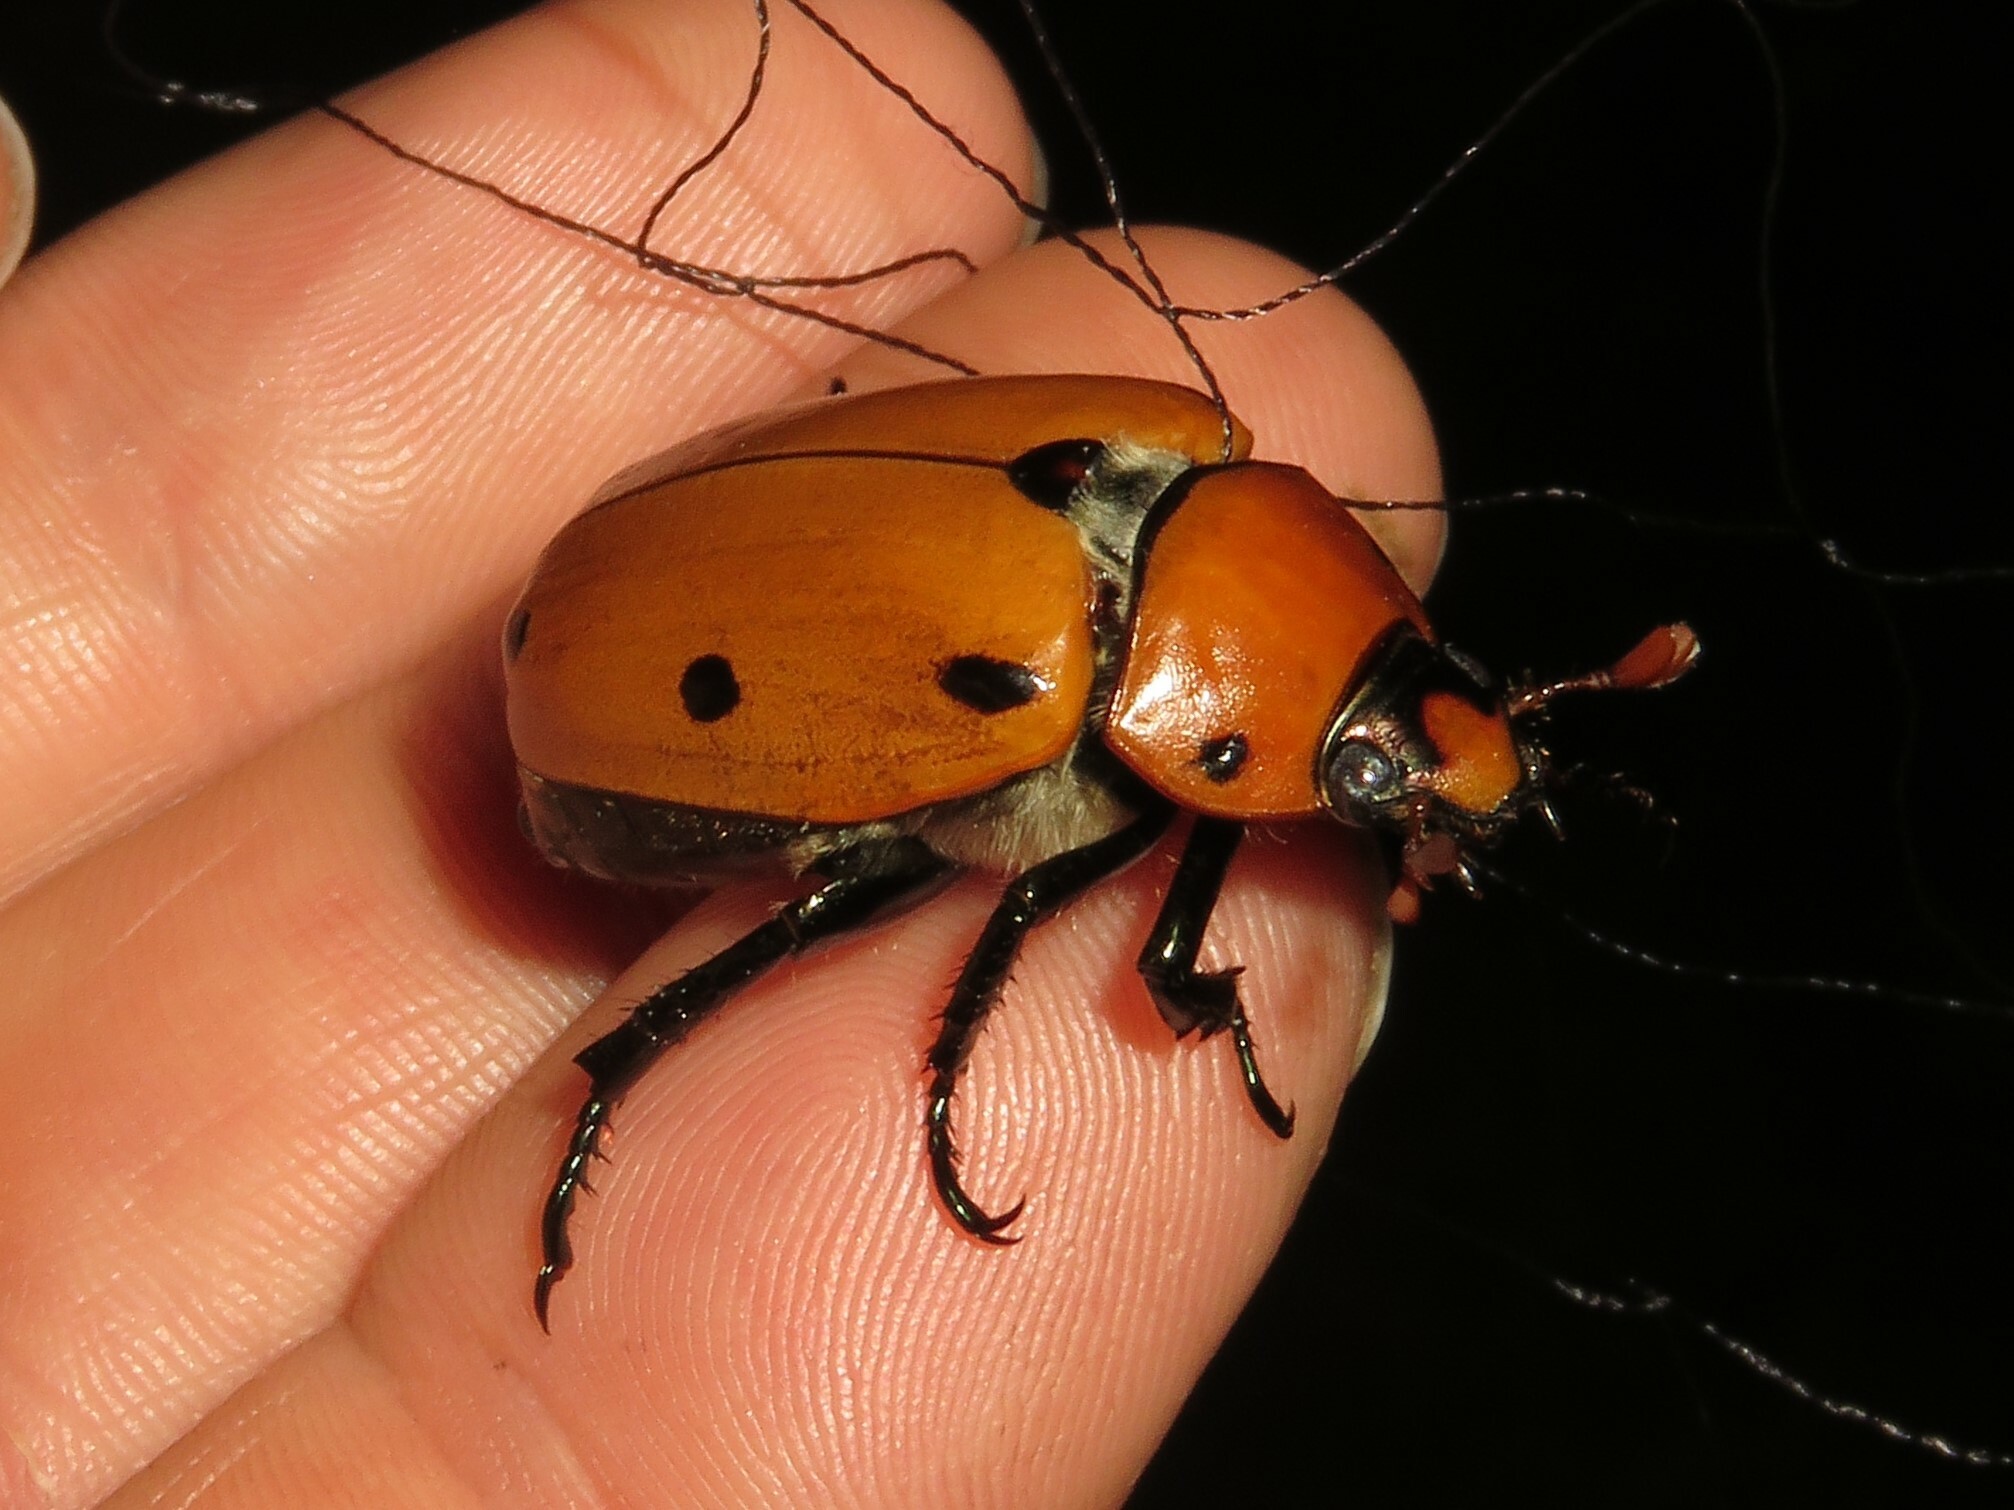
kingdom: Animalia
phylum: Arthropoda
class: Insecta
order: Coleoptera
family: Scarabaeidae
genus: Pelidnota
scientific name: Pelidnota punctata
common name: Grapevine beetle
